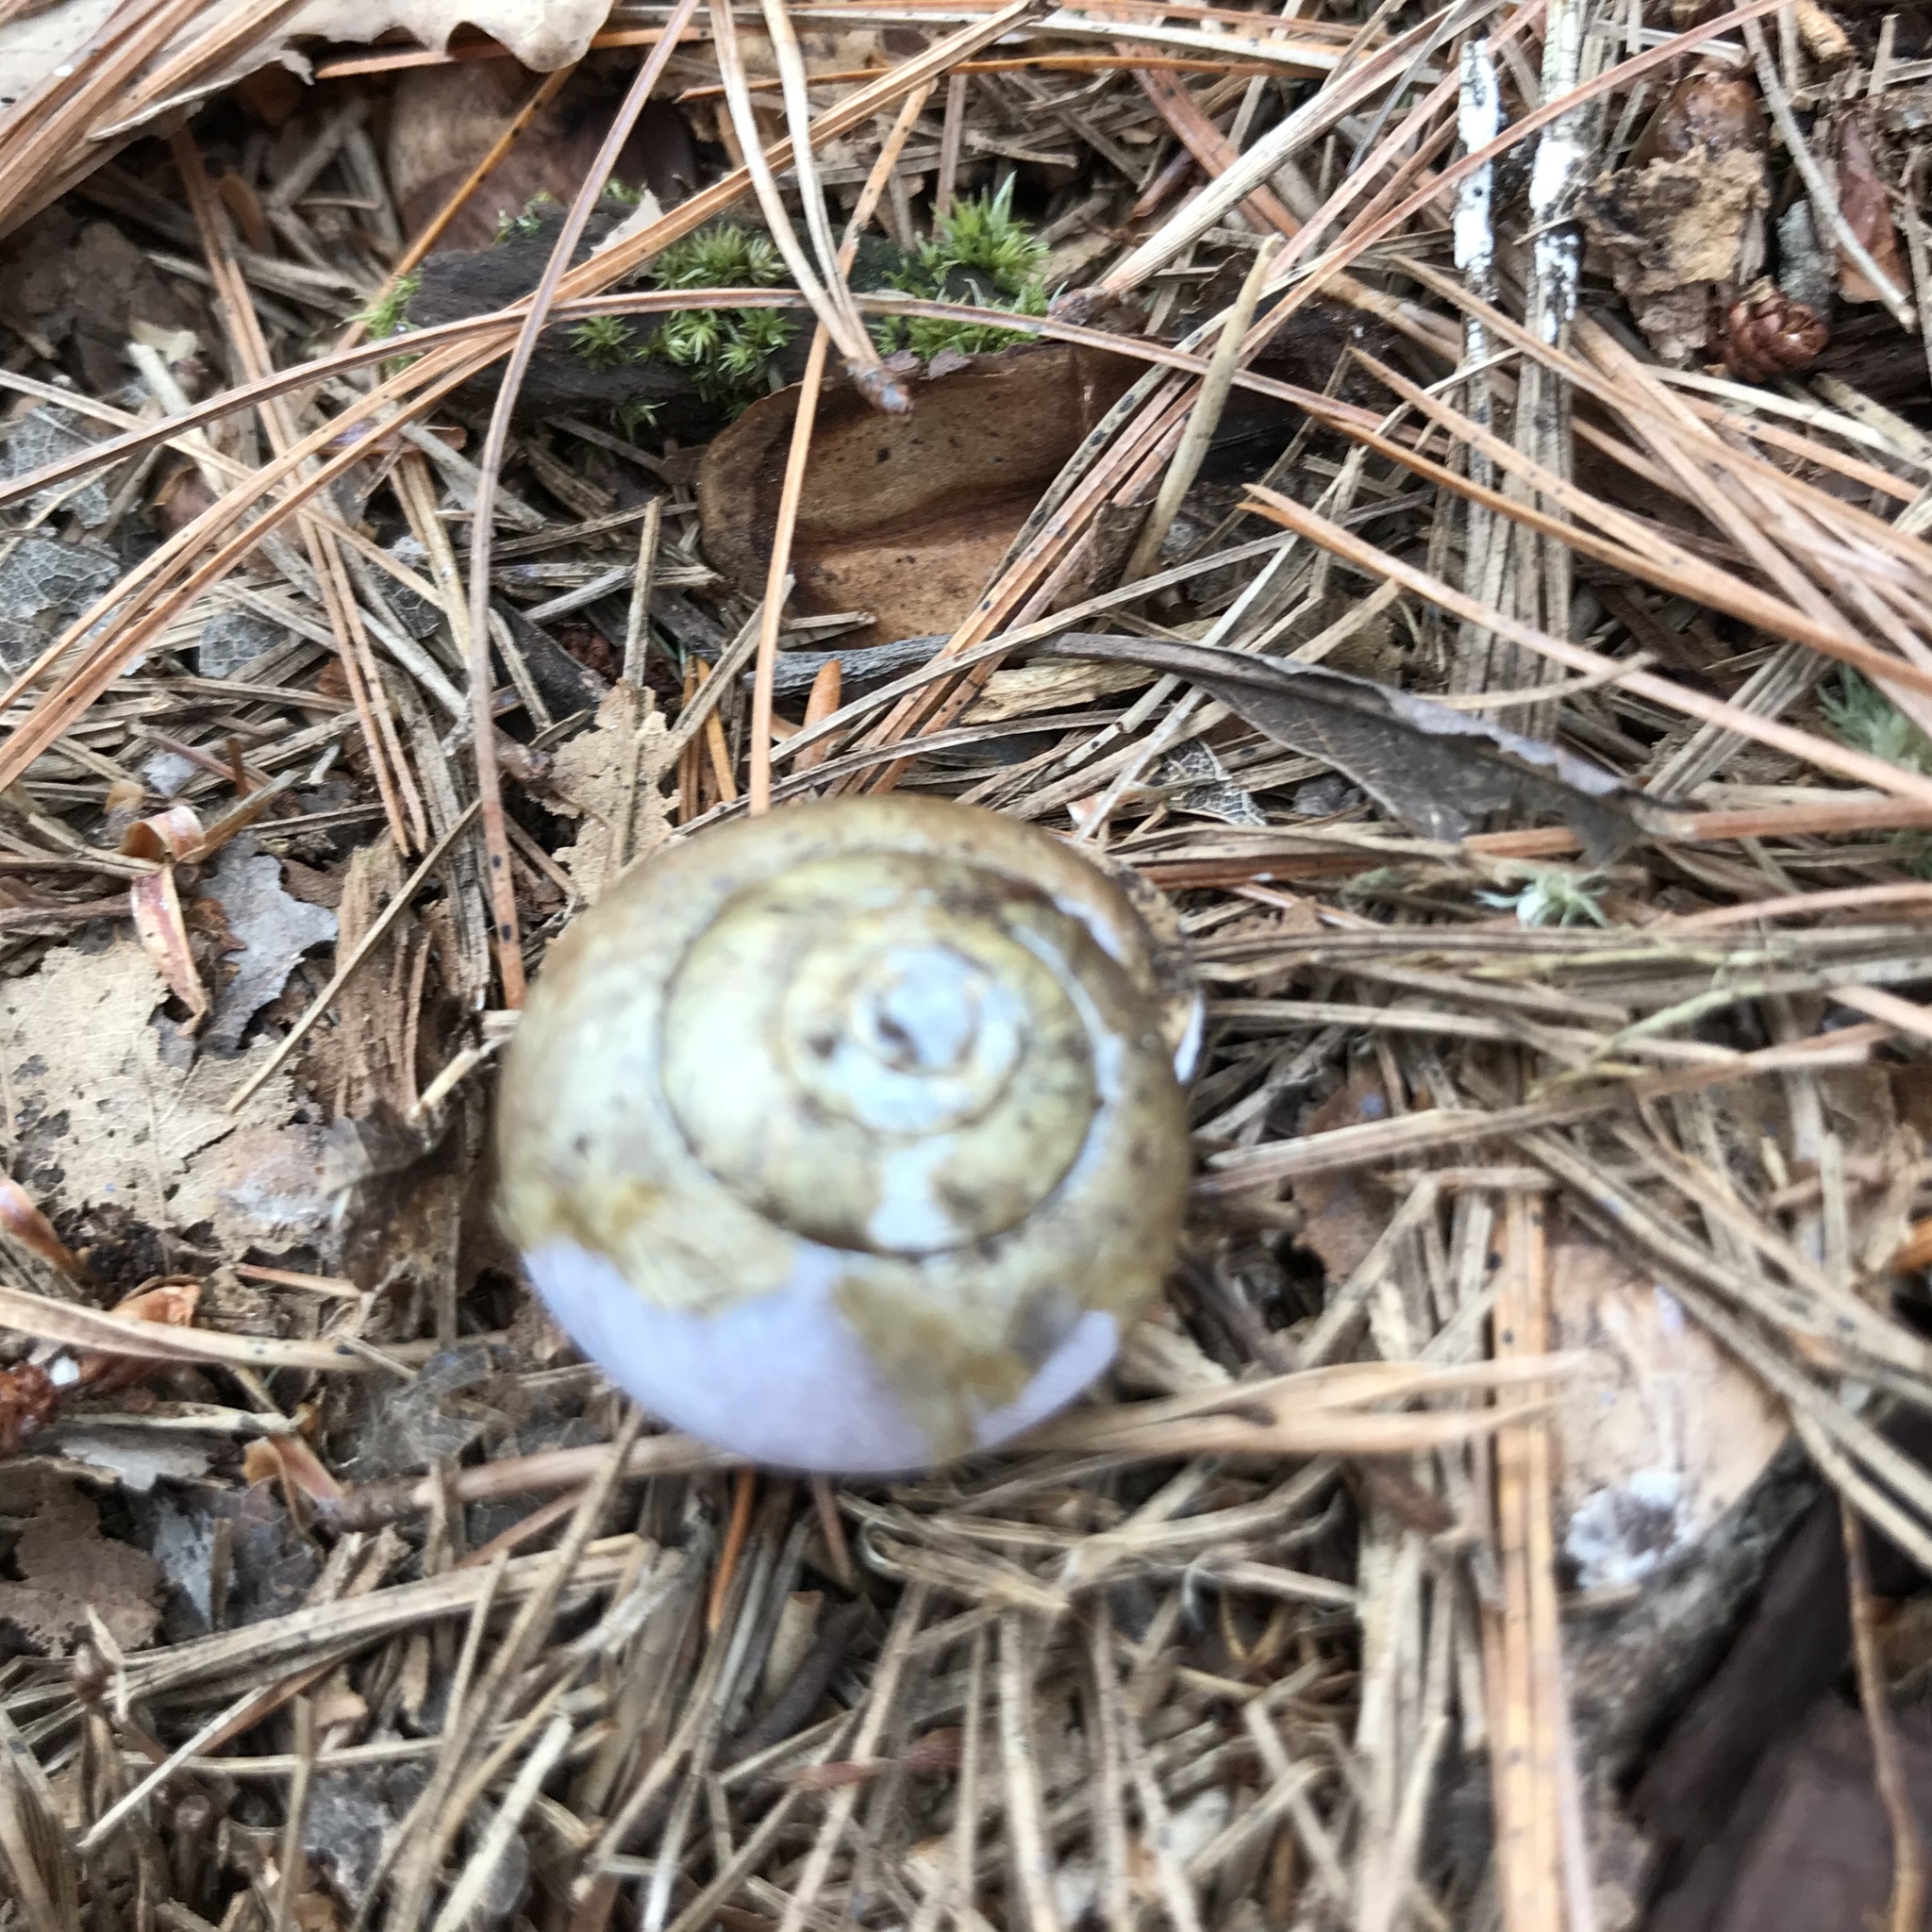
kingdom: Animalia
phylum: Mollusca
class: Gastropoda
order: Stylommatophora
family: Polygyridae
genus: Neohelix
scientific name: Neohelix albolabris
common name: Eastern whitelip
